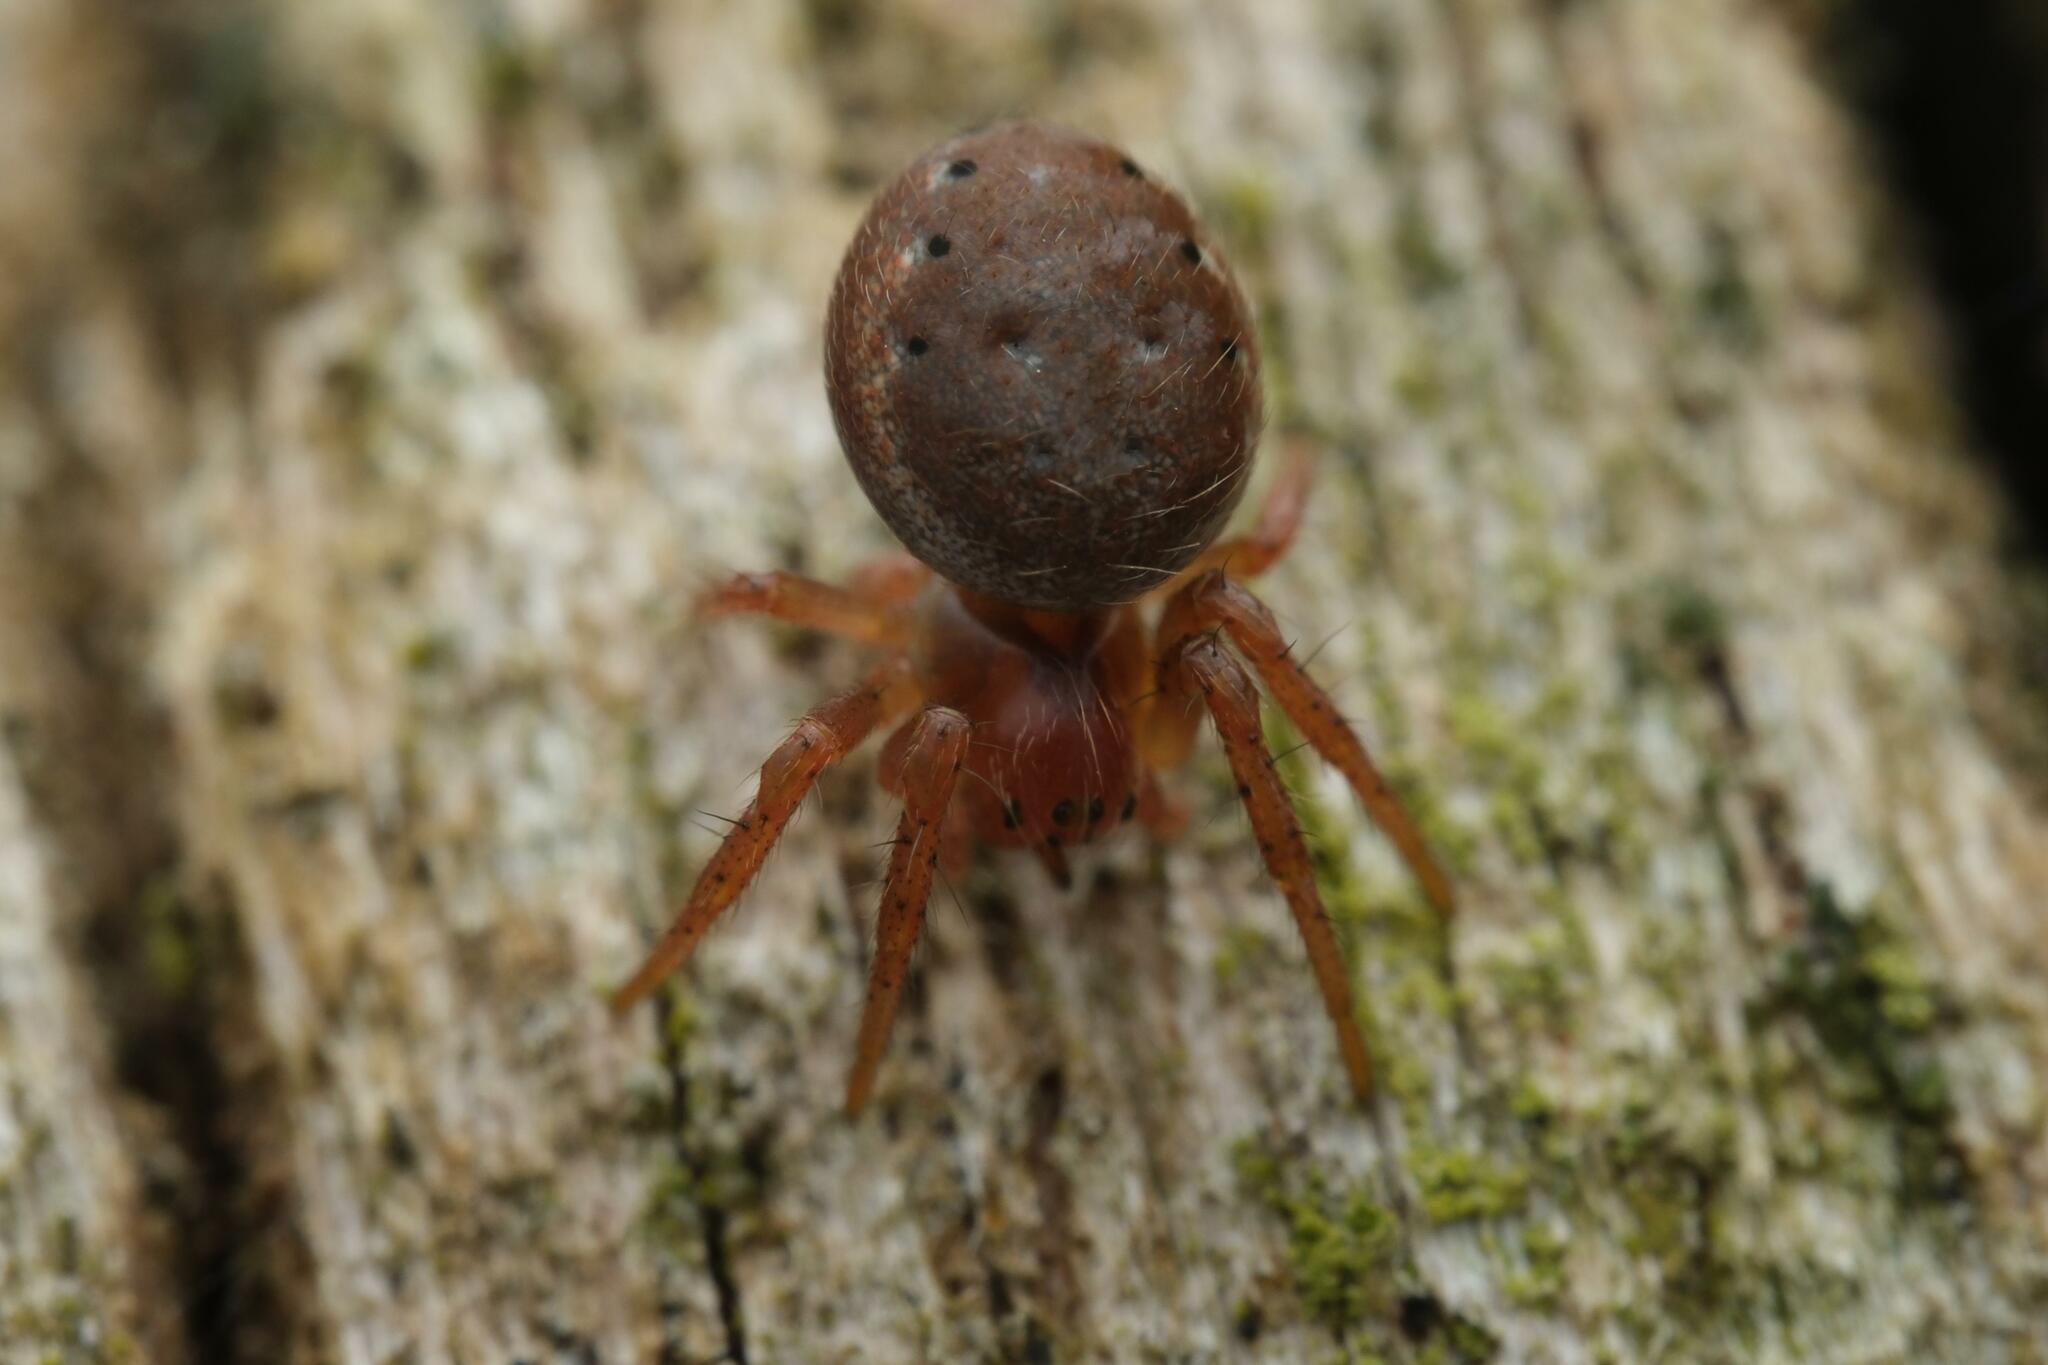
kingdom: Animalia
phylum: Arthropoda
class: Arachnida
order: Araneae
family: Araneidae
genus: Araniella
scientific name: Araniella
